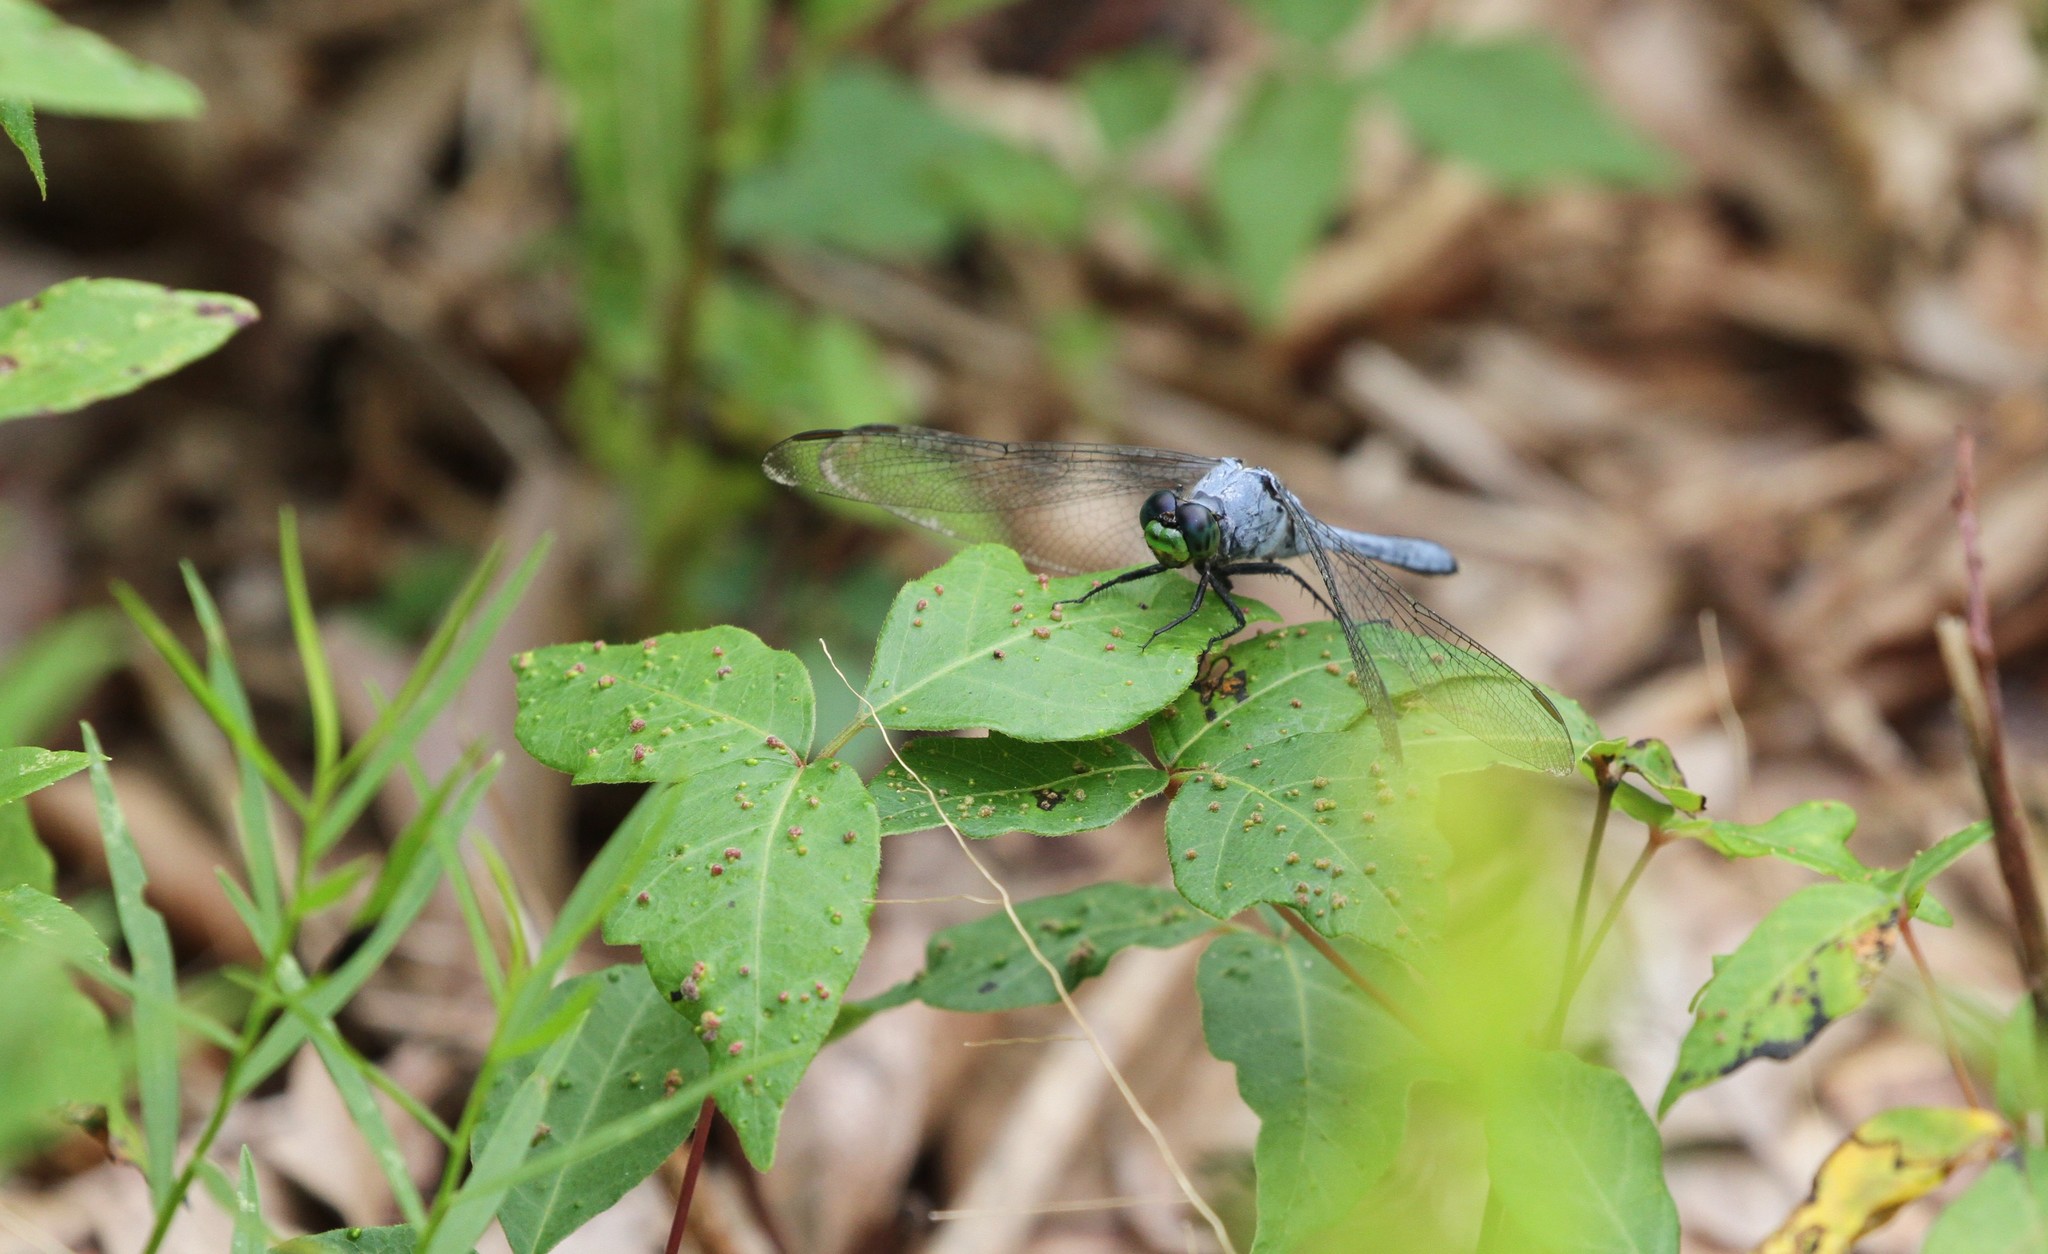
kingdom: Animalia
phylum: Arthropoda
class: Insecta
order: Odonata
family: Libellulidae
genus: Erythemis
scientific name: Erythemis simplicicollis
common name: Eastern pondhawk
